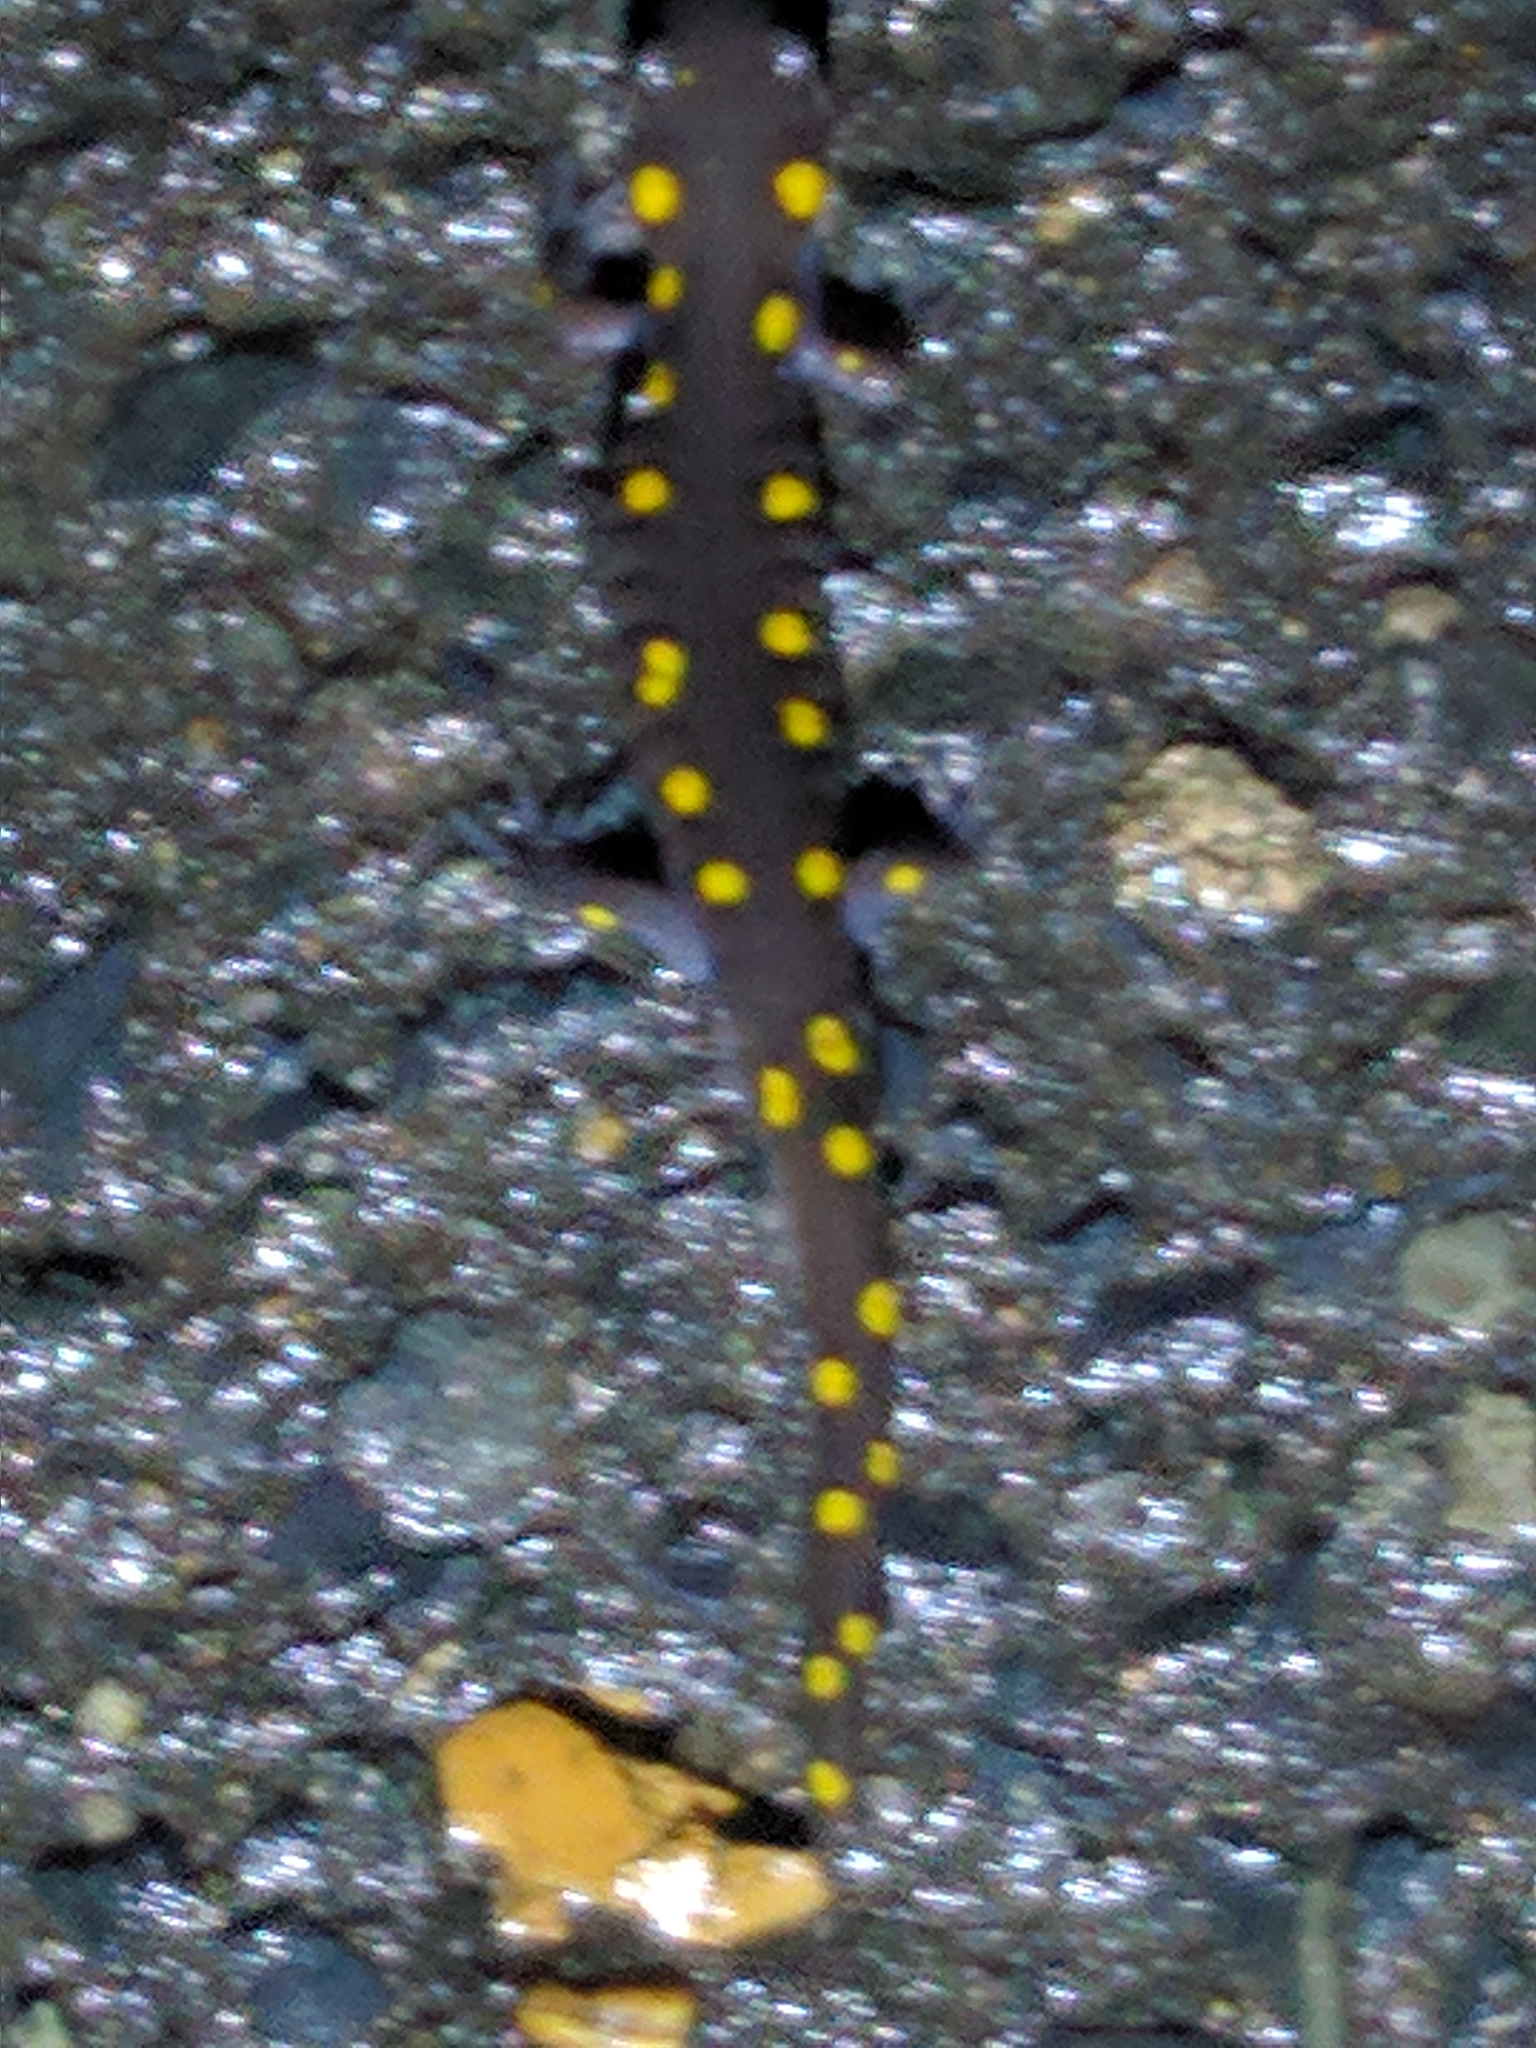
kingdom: Animalia
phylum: Chordata
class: Amphibia
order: Caudata
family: Ambystomatidae
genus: Ambystoma
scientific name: Ambystoma maculatum
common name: Spotted salamander
